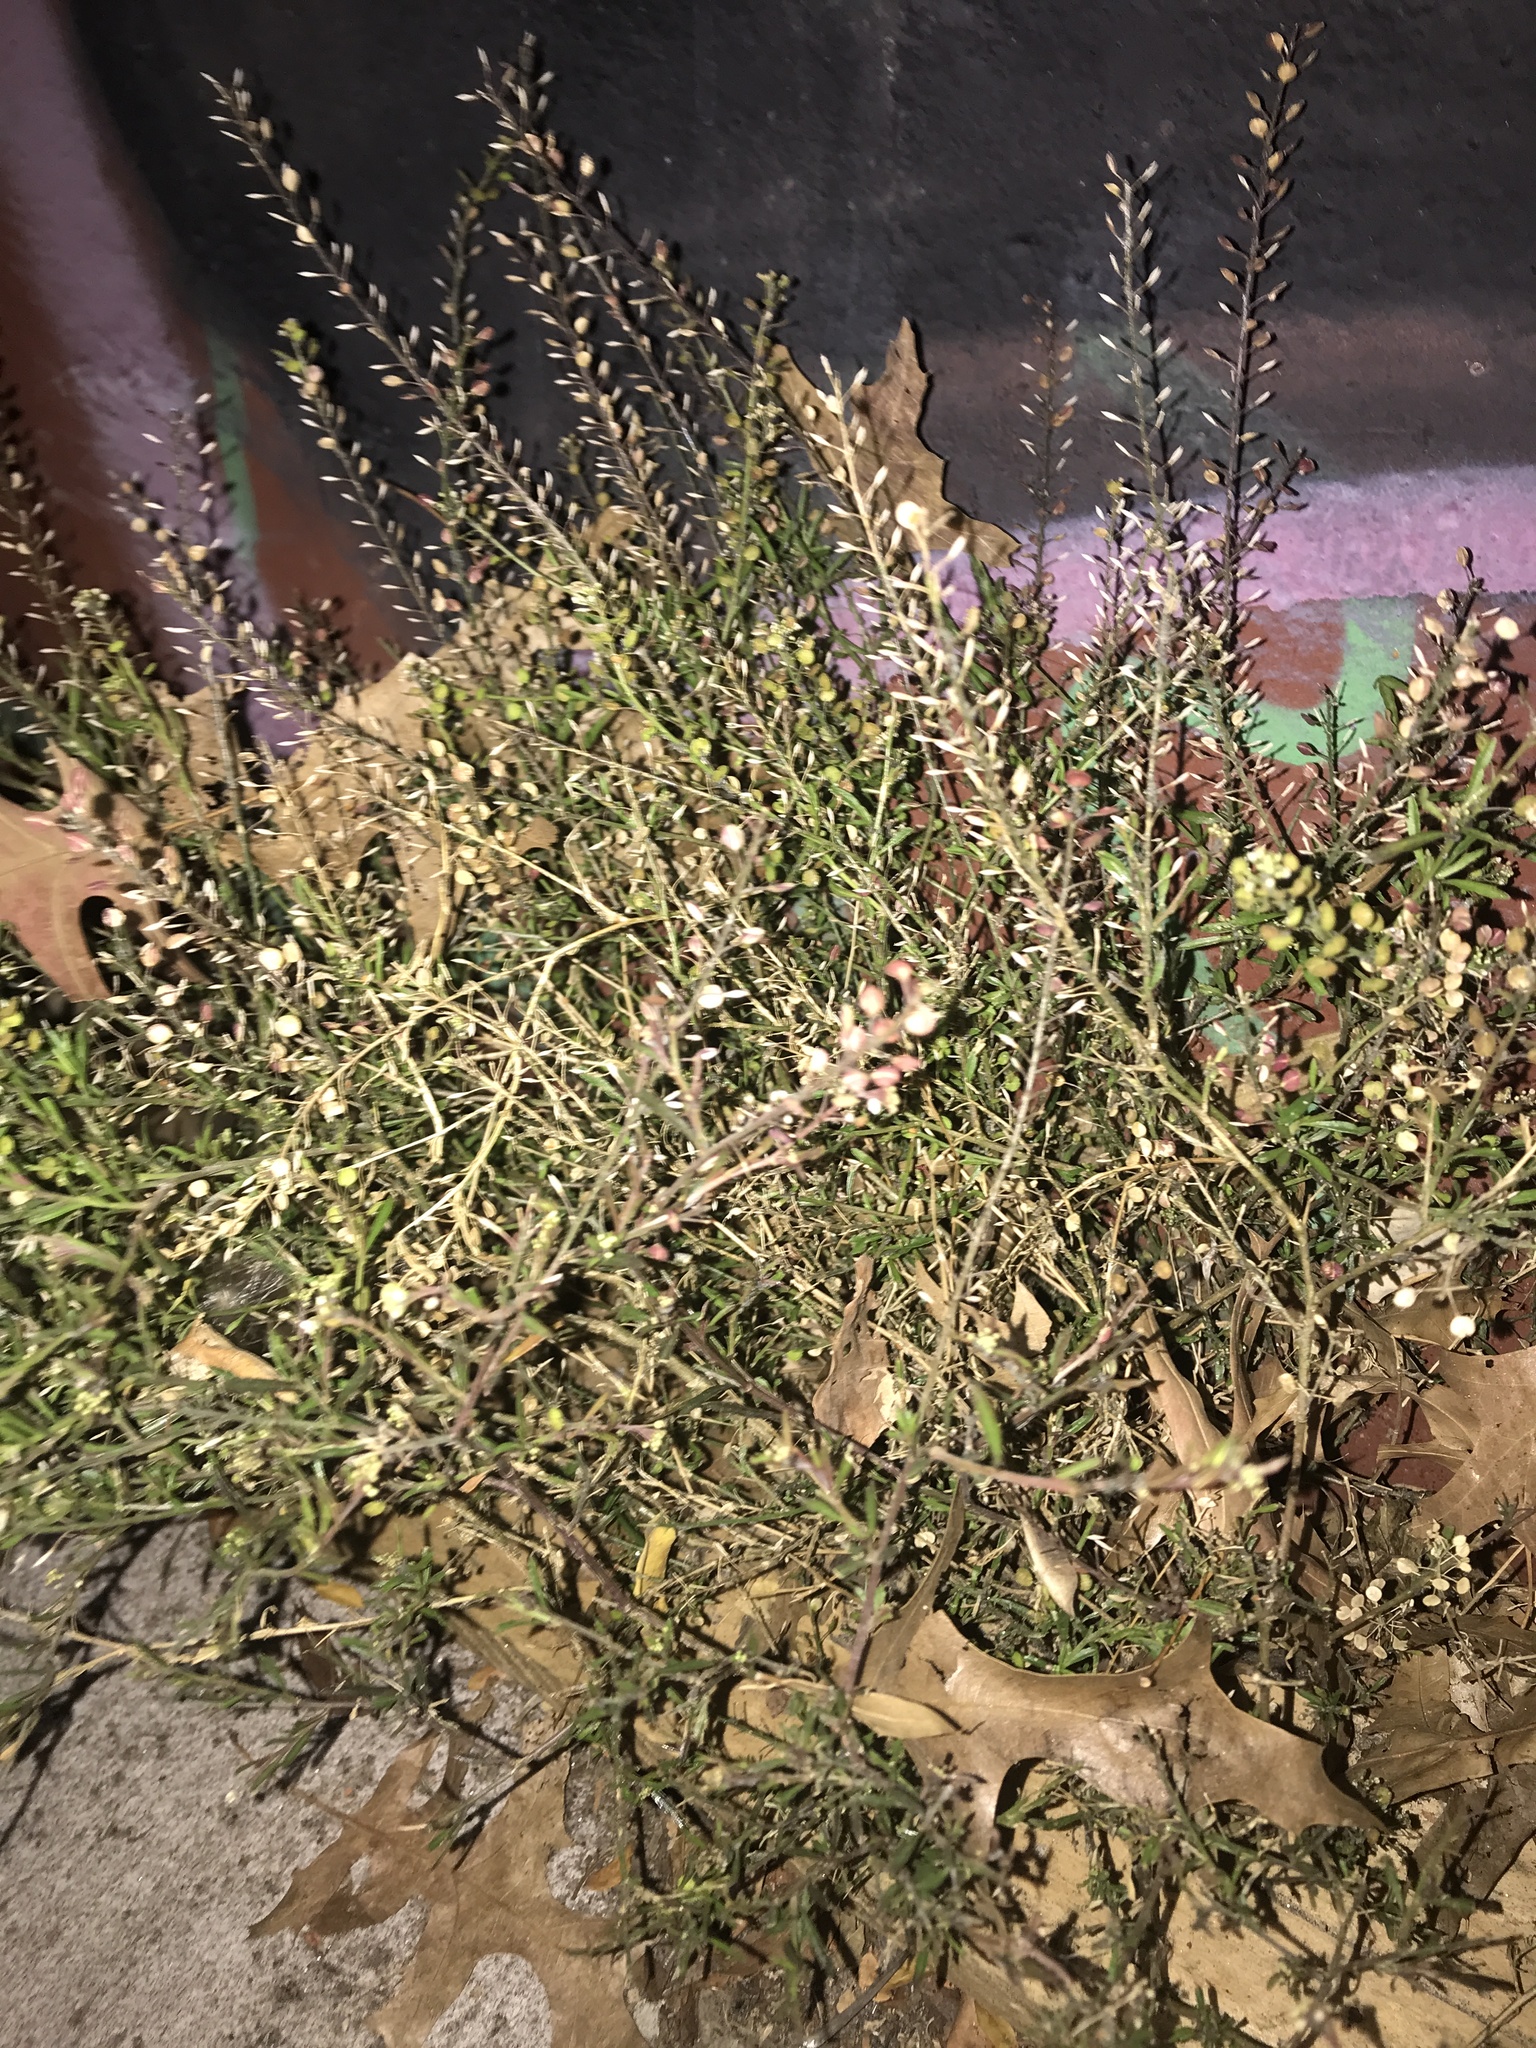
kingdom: Plantae
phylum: Tracheophyta
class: Magnoliopsida
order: Brassicales
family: Brassicaceae
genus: Lepidium
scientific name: Lepidium virginicum
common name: Least pepperwort
